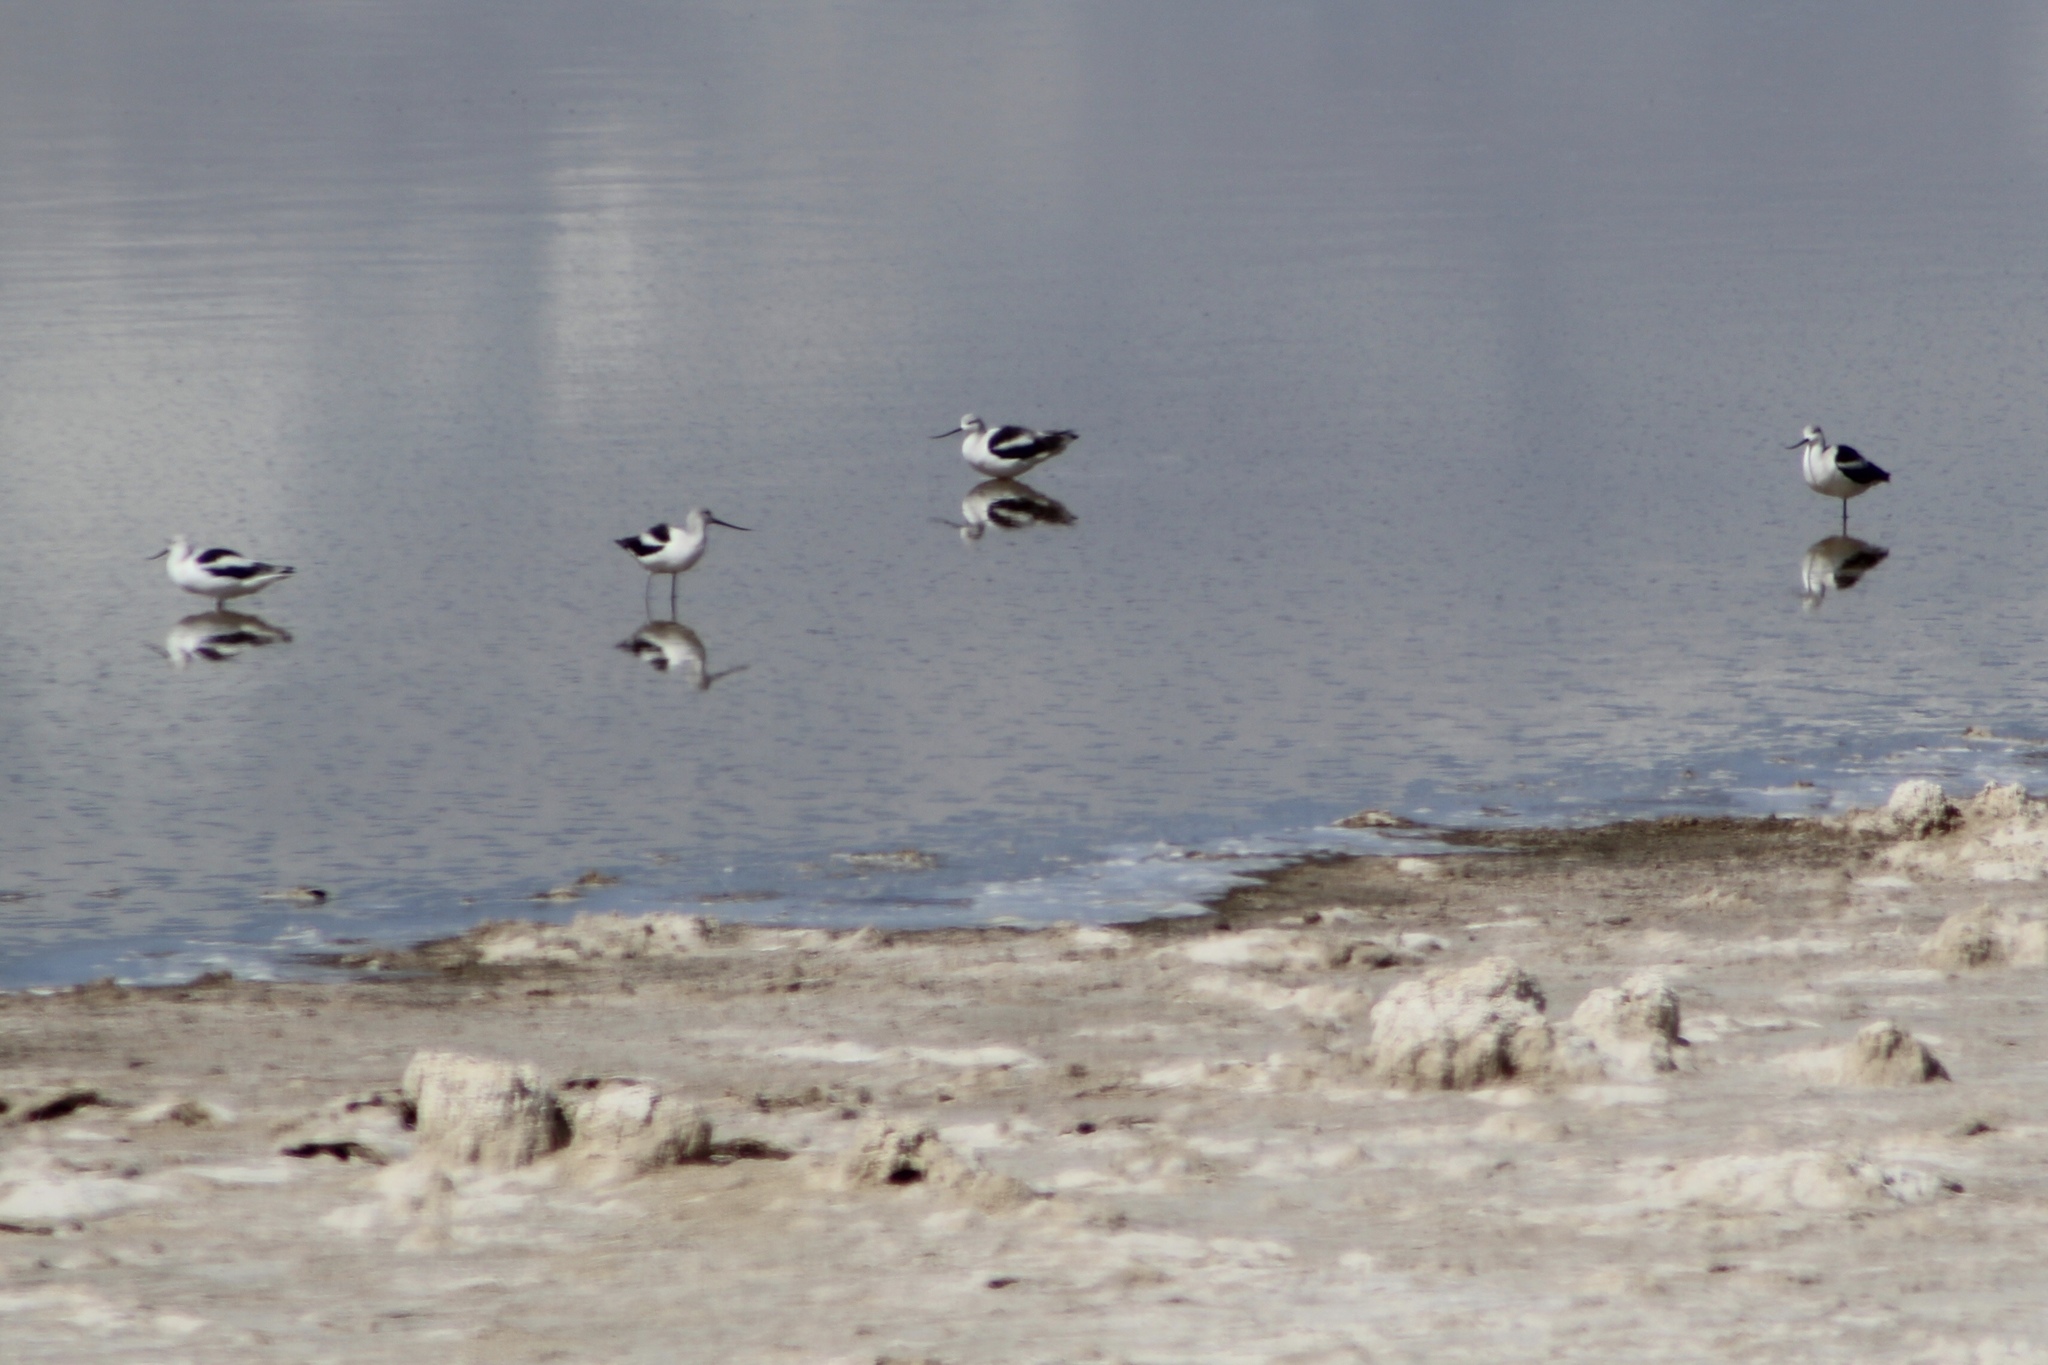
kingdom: Animalia
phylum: Chordata
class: Aves
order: Charadriiformes
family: Recurvirostridae
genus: Recurvirostra
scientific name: Recurvirostra americana
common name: American avocet
